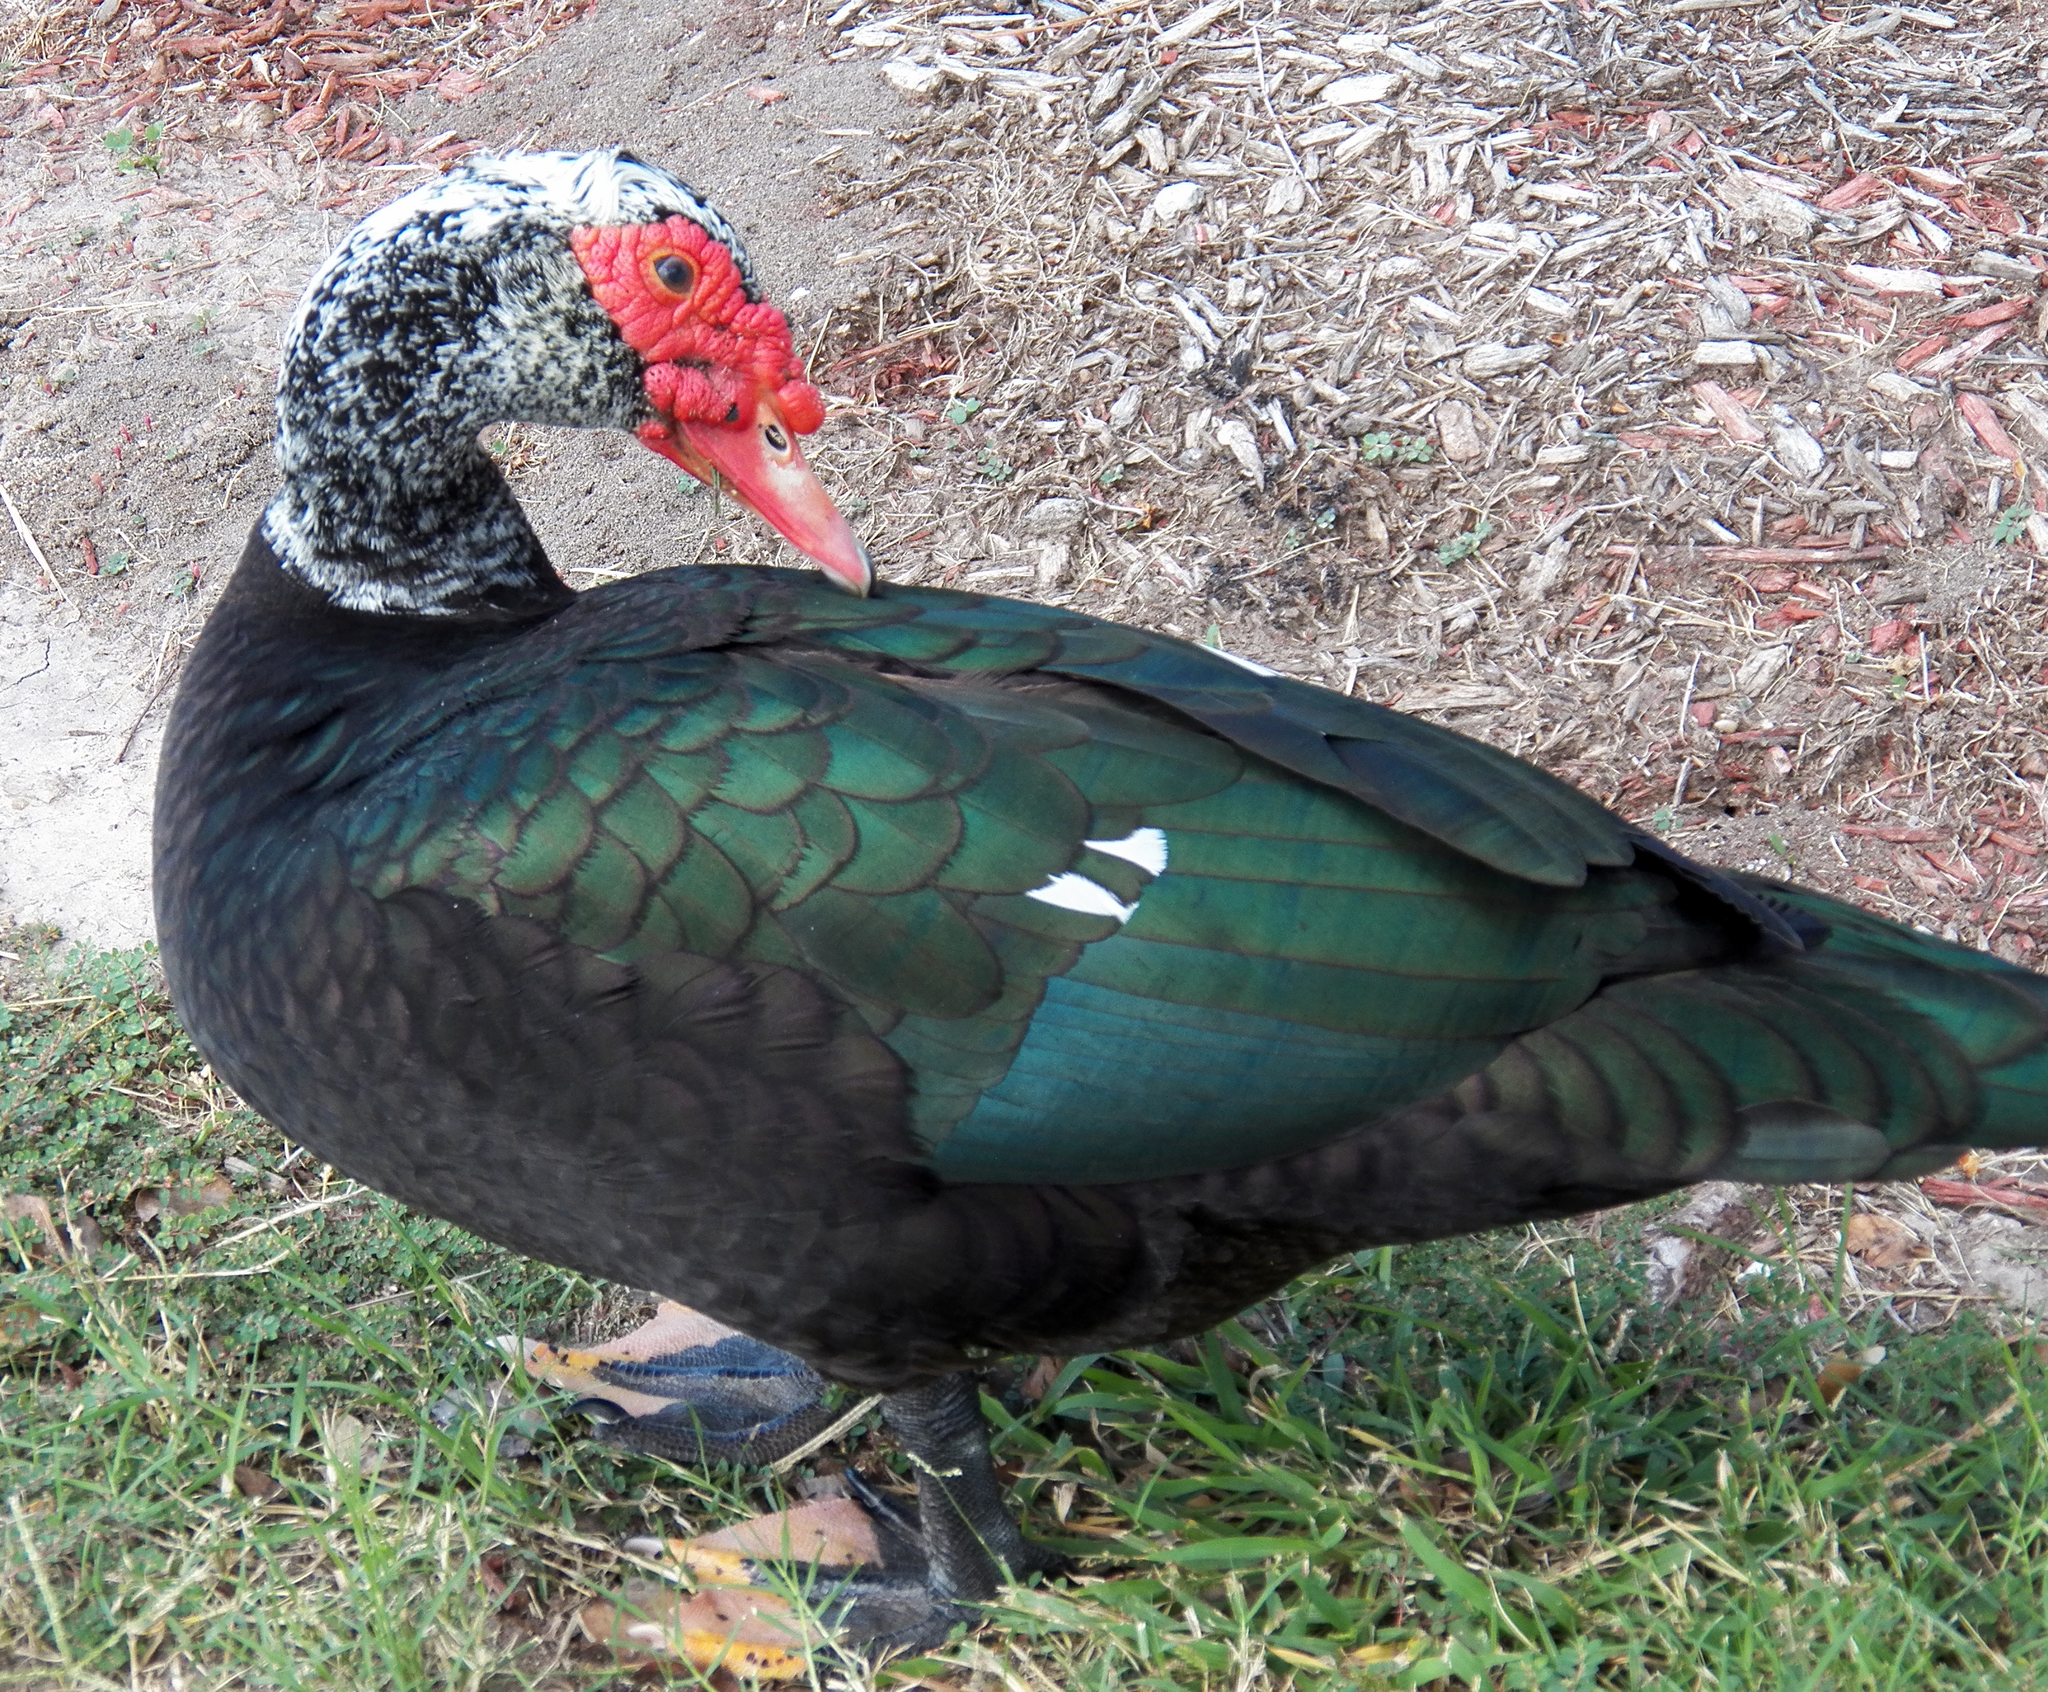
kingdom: Animalia
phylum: Chordata
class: Aves
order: Anseriformes
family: Anatidae
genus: Cairina
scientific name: Cairina moschata
